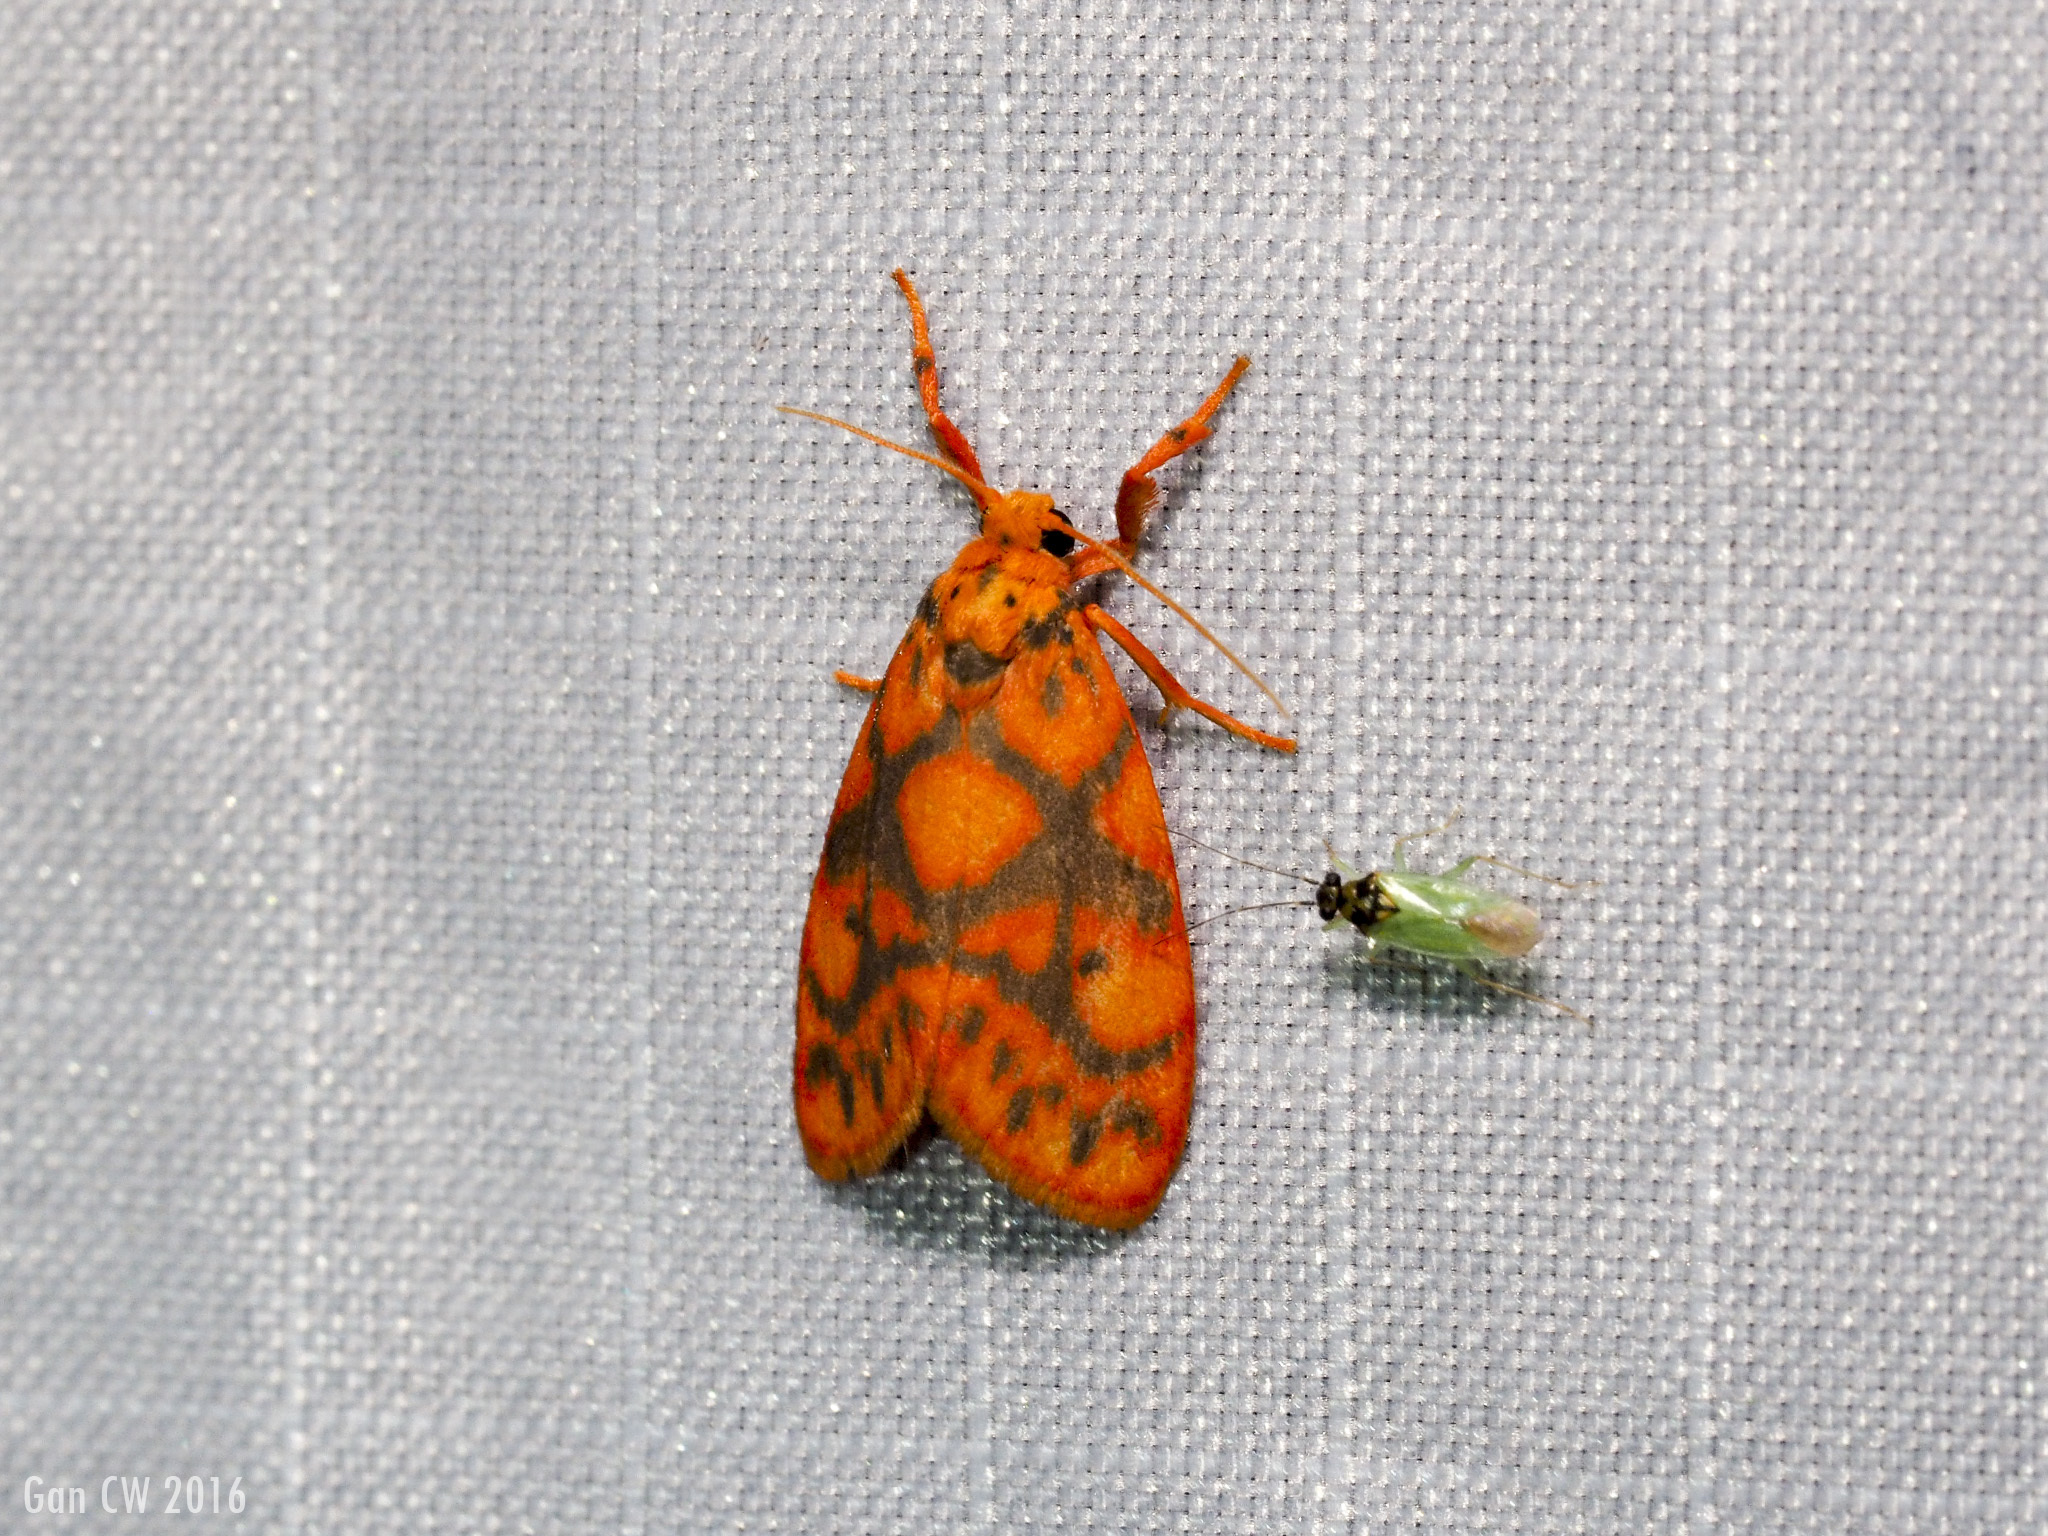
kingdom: Animalia
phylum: Arthropoda
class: Insecta
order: Lepidoptera
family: Erebidae
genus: Nanarsine
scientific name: Nanarsine porphyrea
